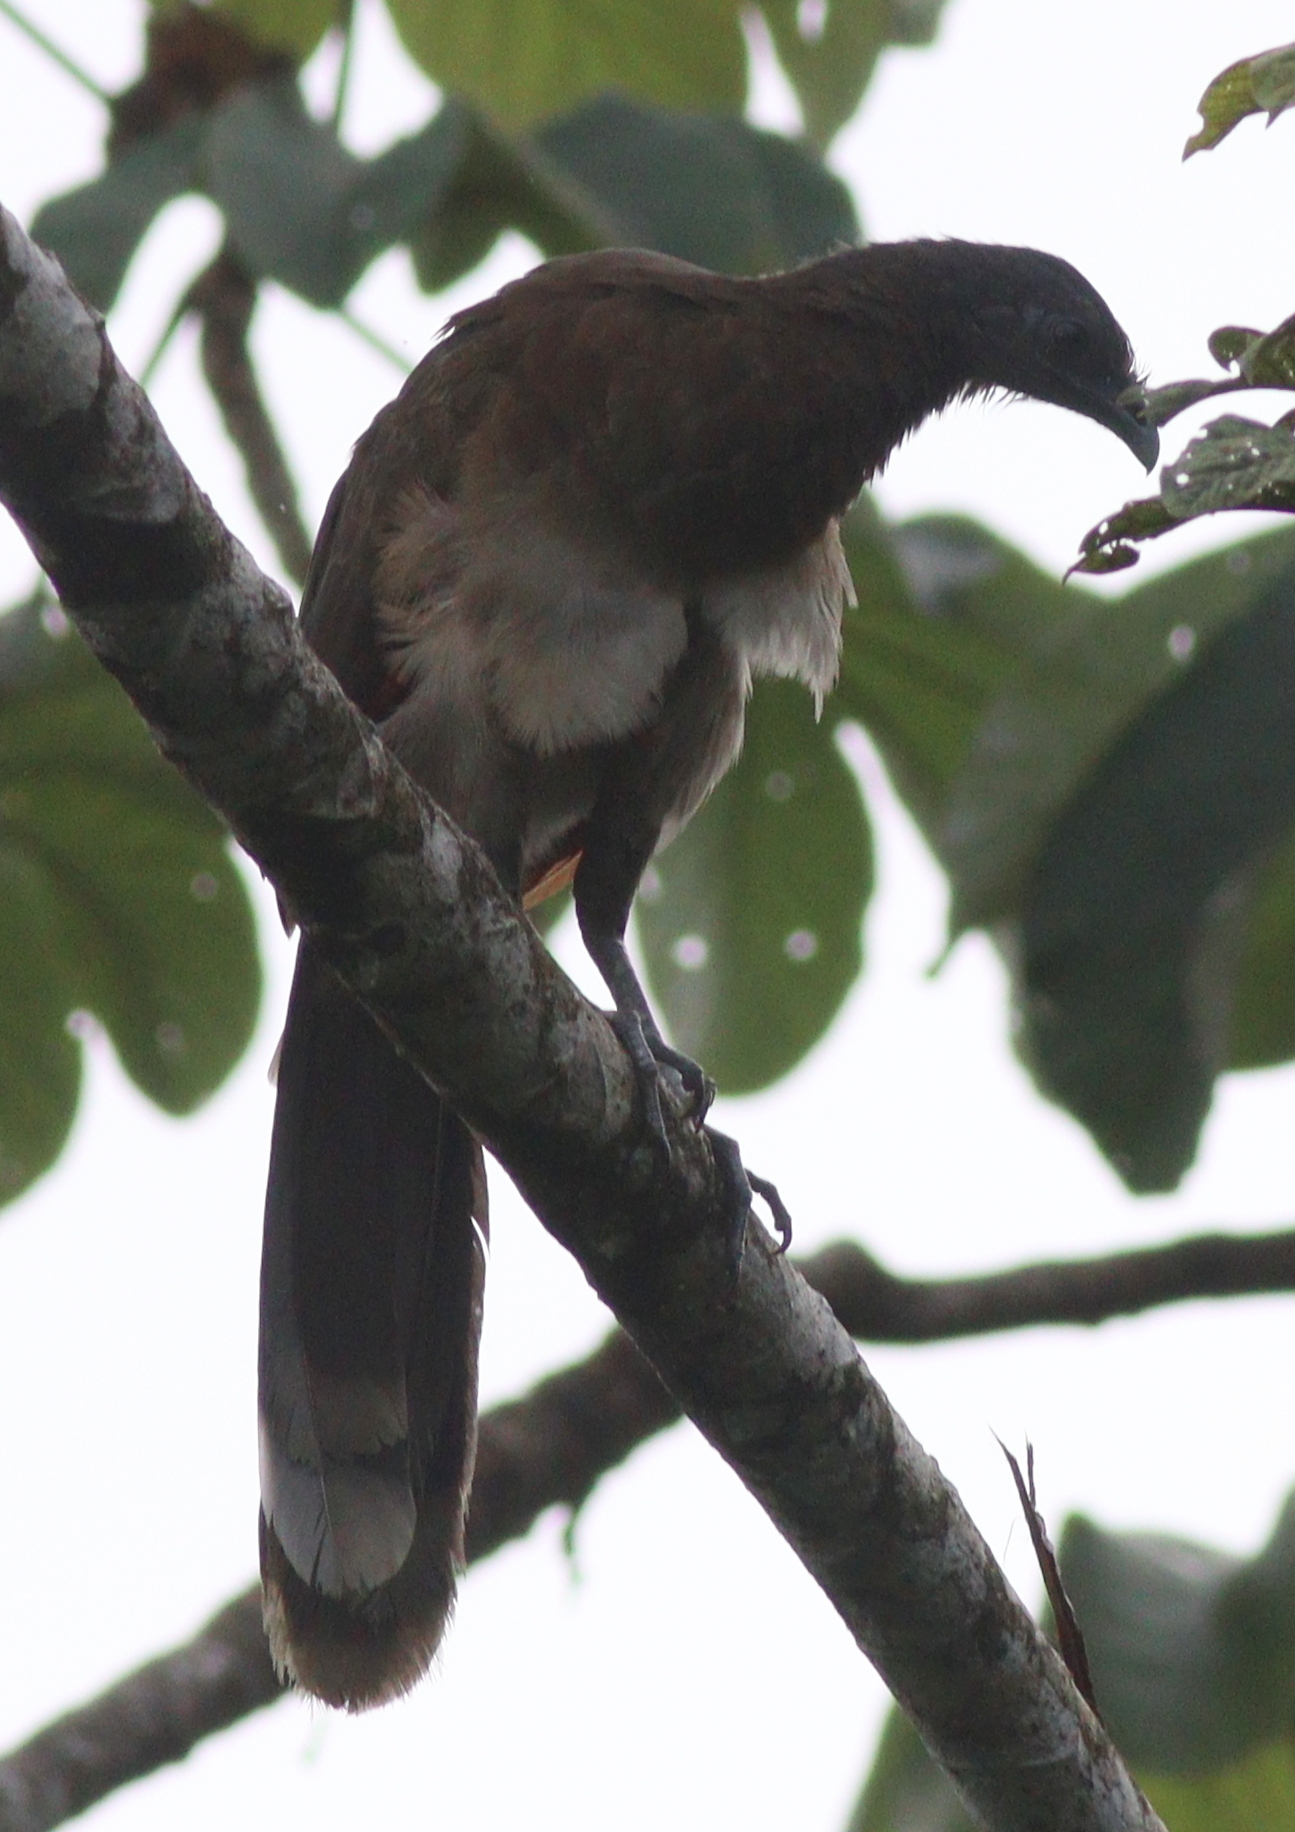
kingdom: Animalia
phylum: Chordata
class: Aves
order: Galliformes
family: Cracidae
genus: Ortalis
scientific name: Ortalis cinereiceps
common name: Grey-headed chachalaca
